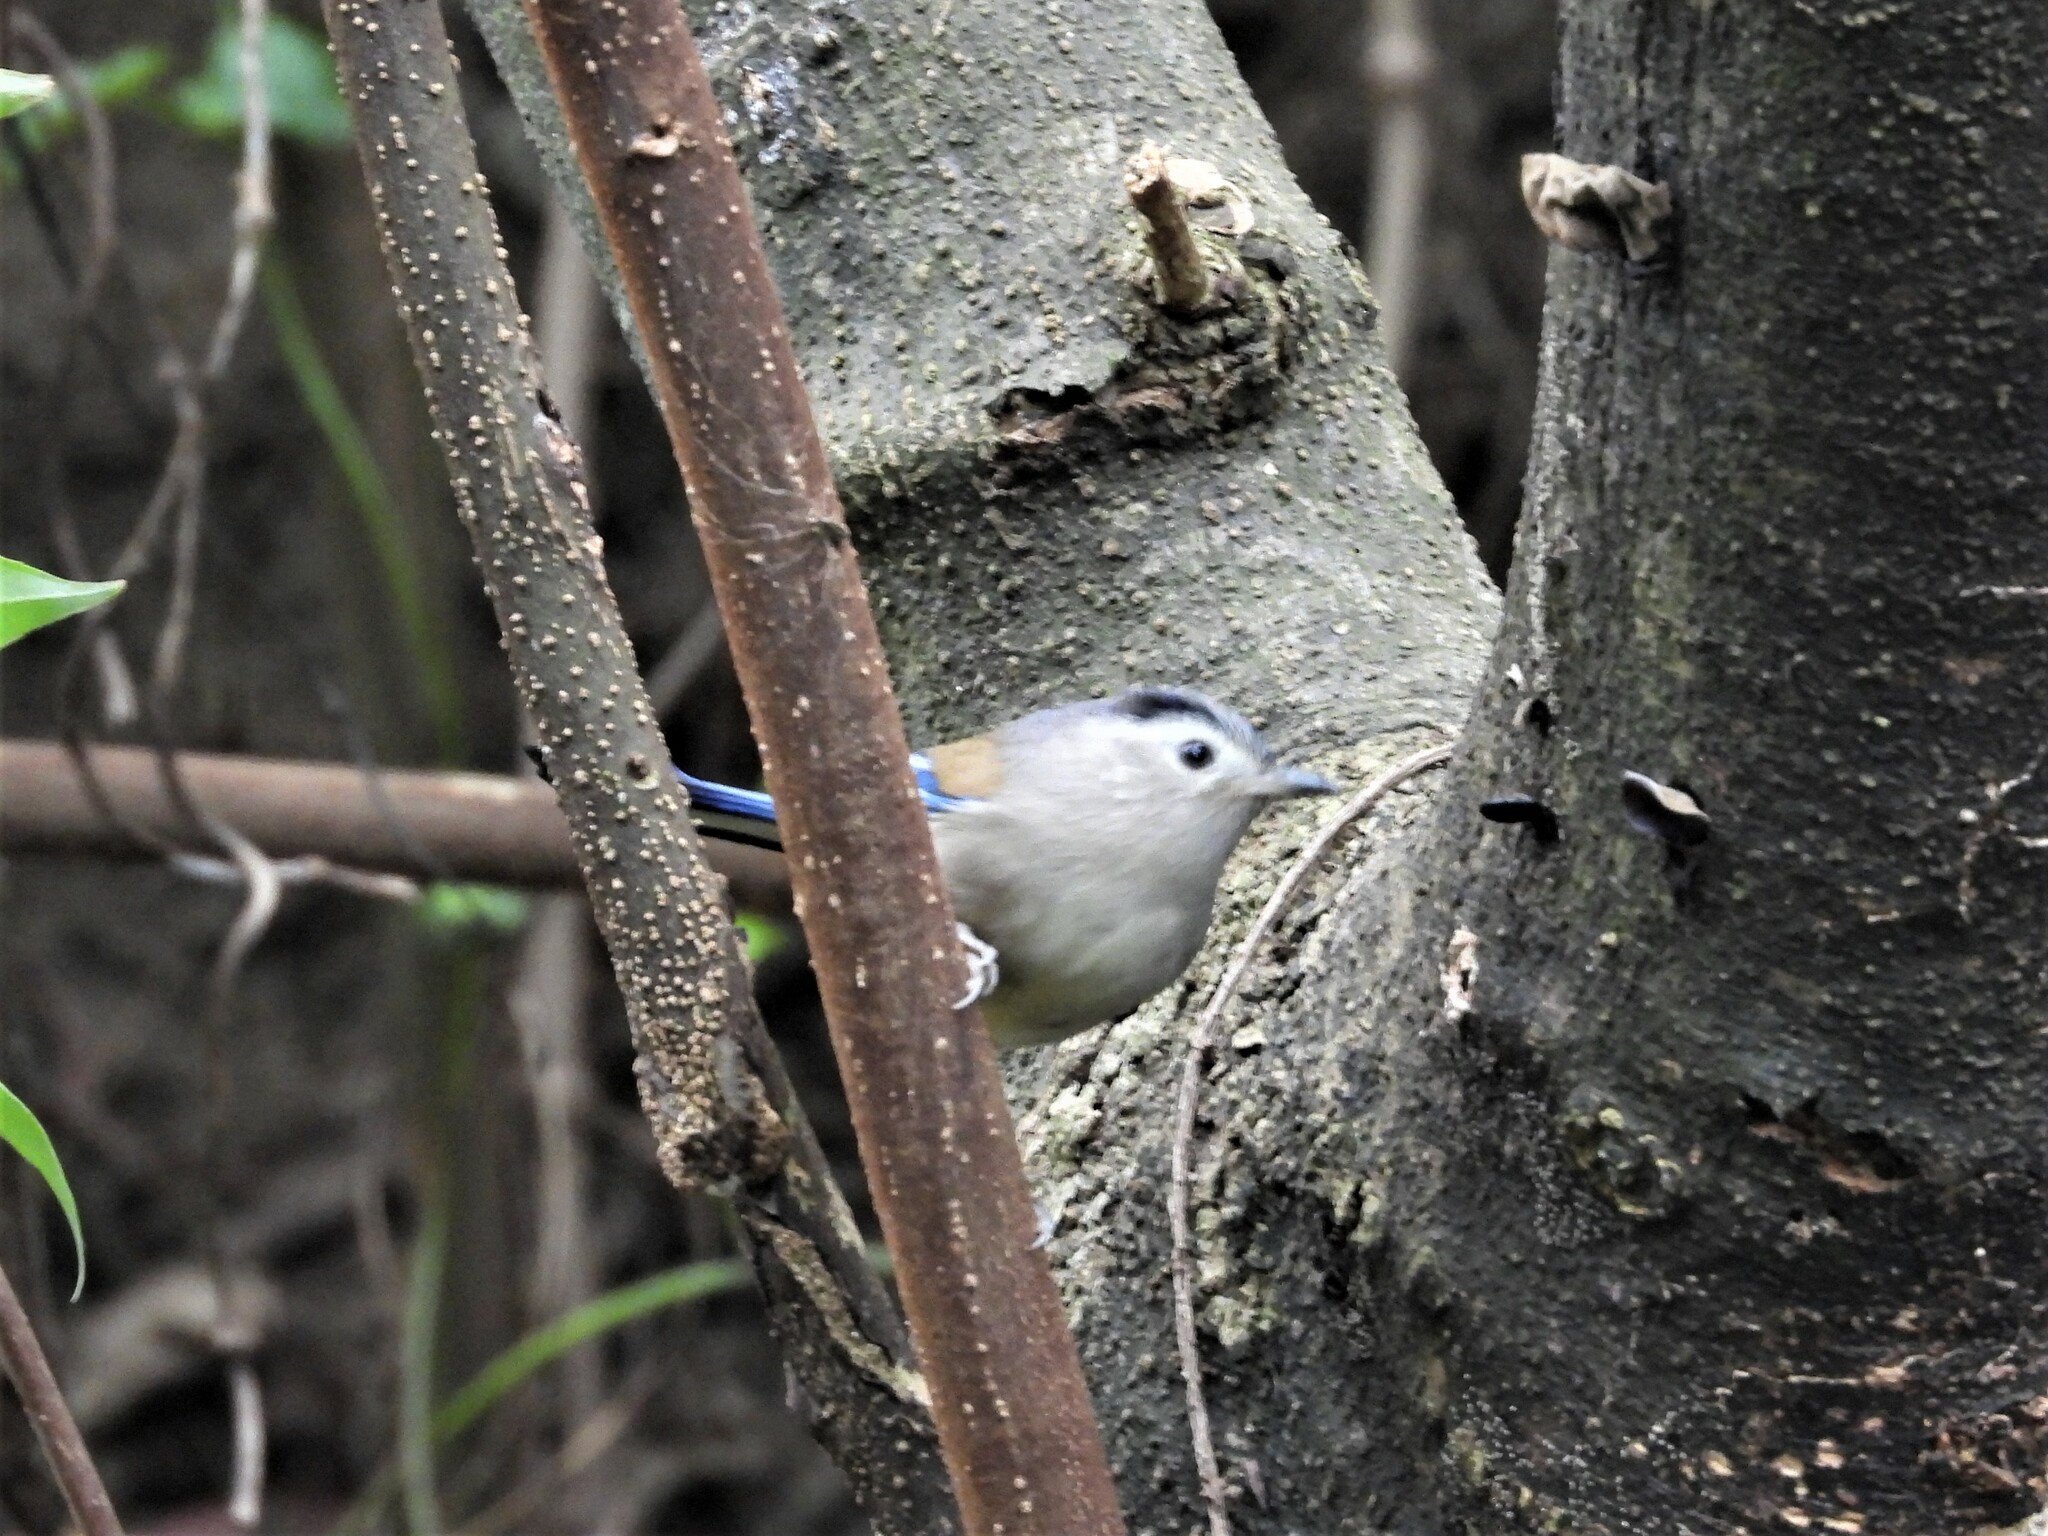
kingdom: Animalia
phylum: Chordata
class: Aves
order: Passeriformes
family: Leiothrichidae
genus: Minla
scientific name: Minla cyanouroptera
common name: Blue-winged minla
